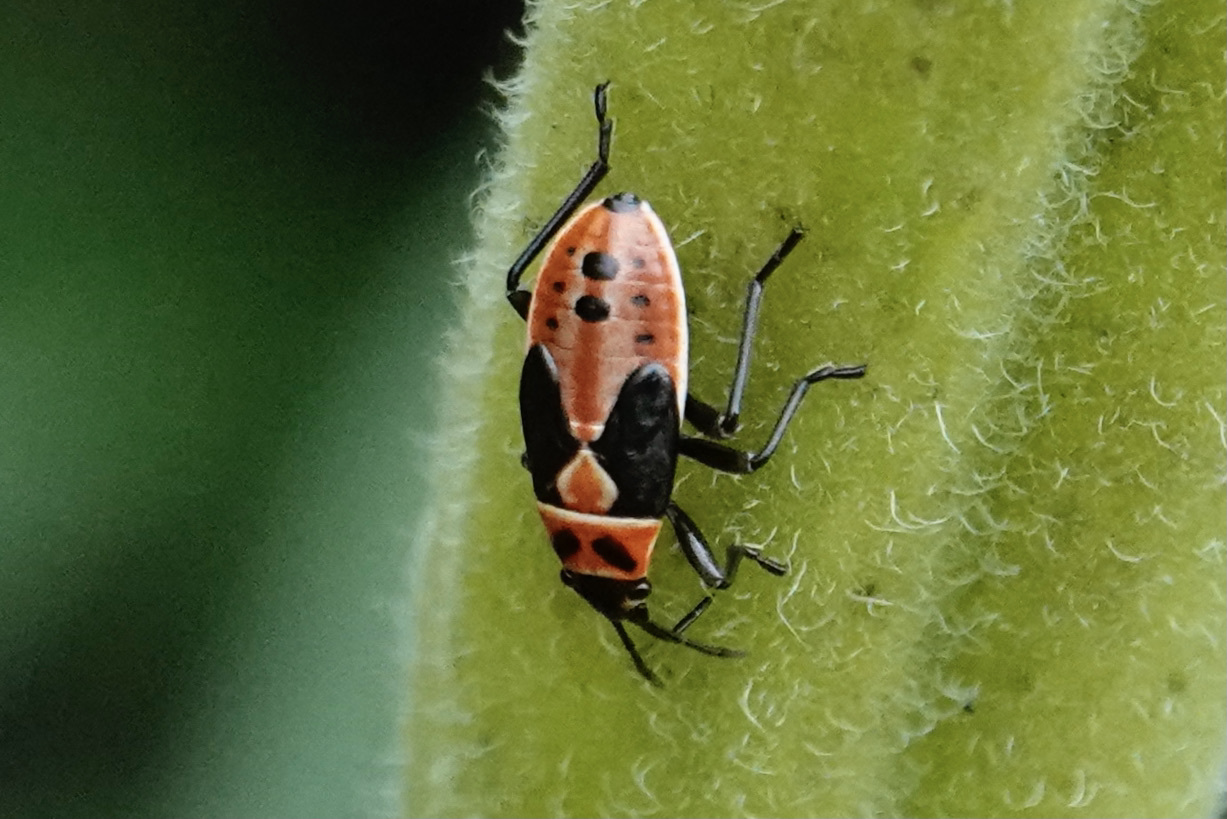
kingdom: Animalia
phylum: Arthropoda
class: Insecta
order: Hemiptera
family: Lygaeidae
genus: Lygaeus
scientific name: Lygaeus kalmii
